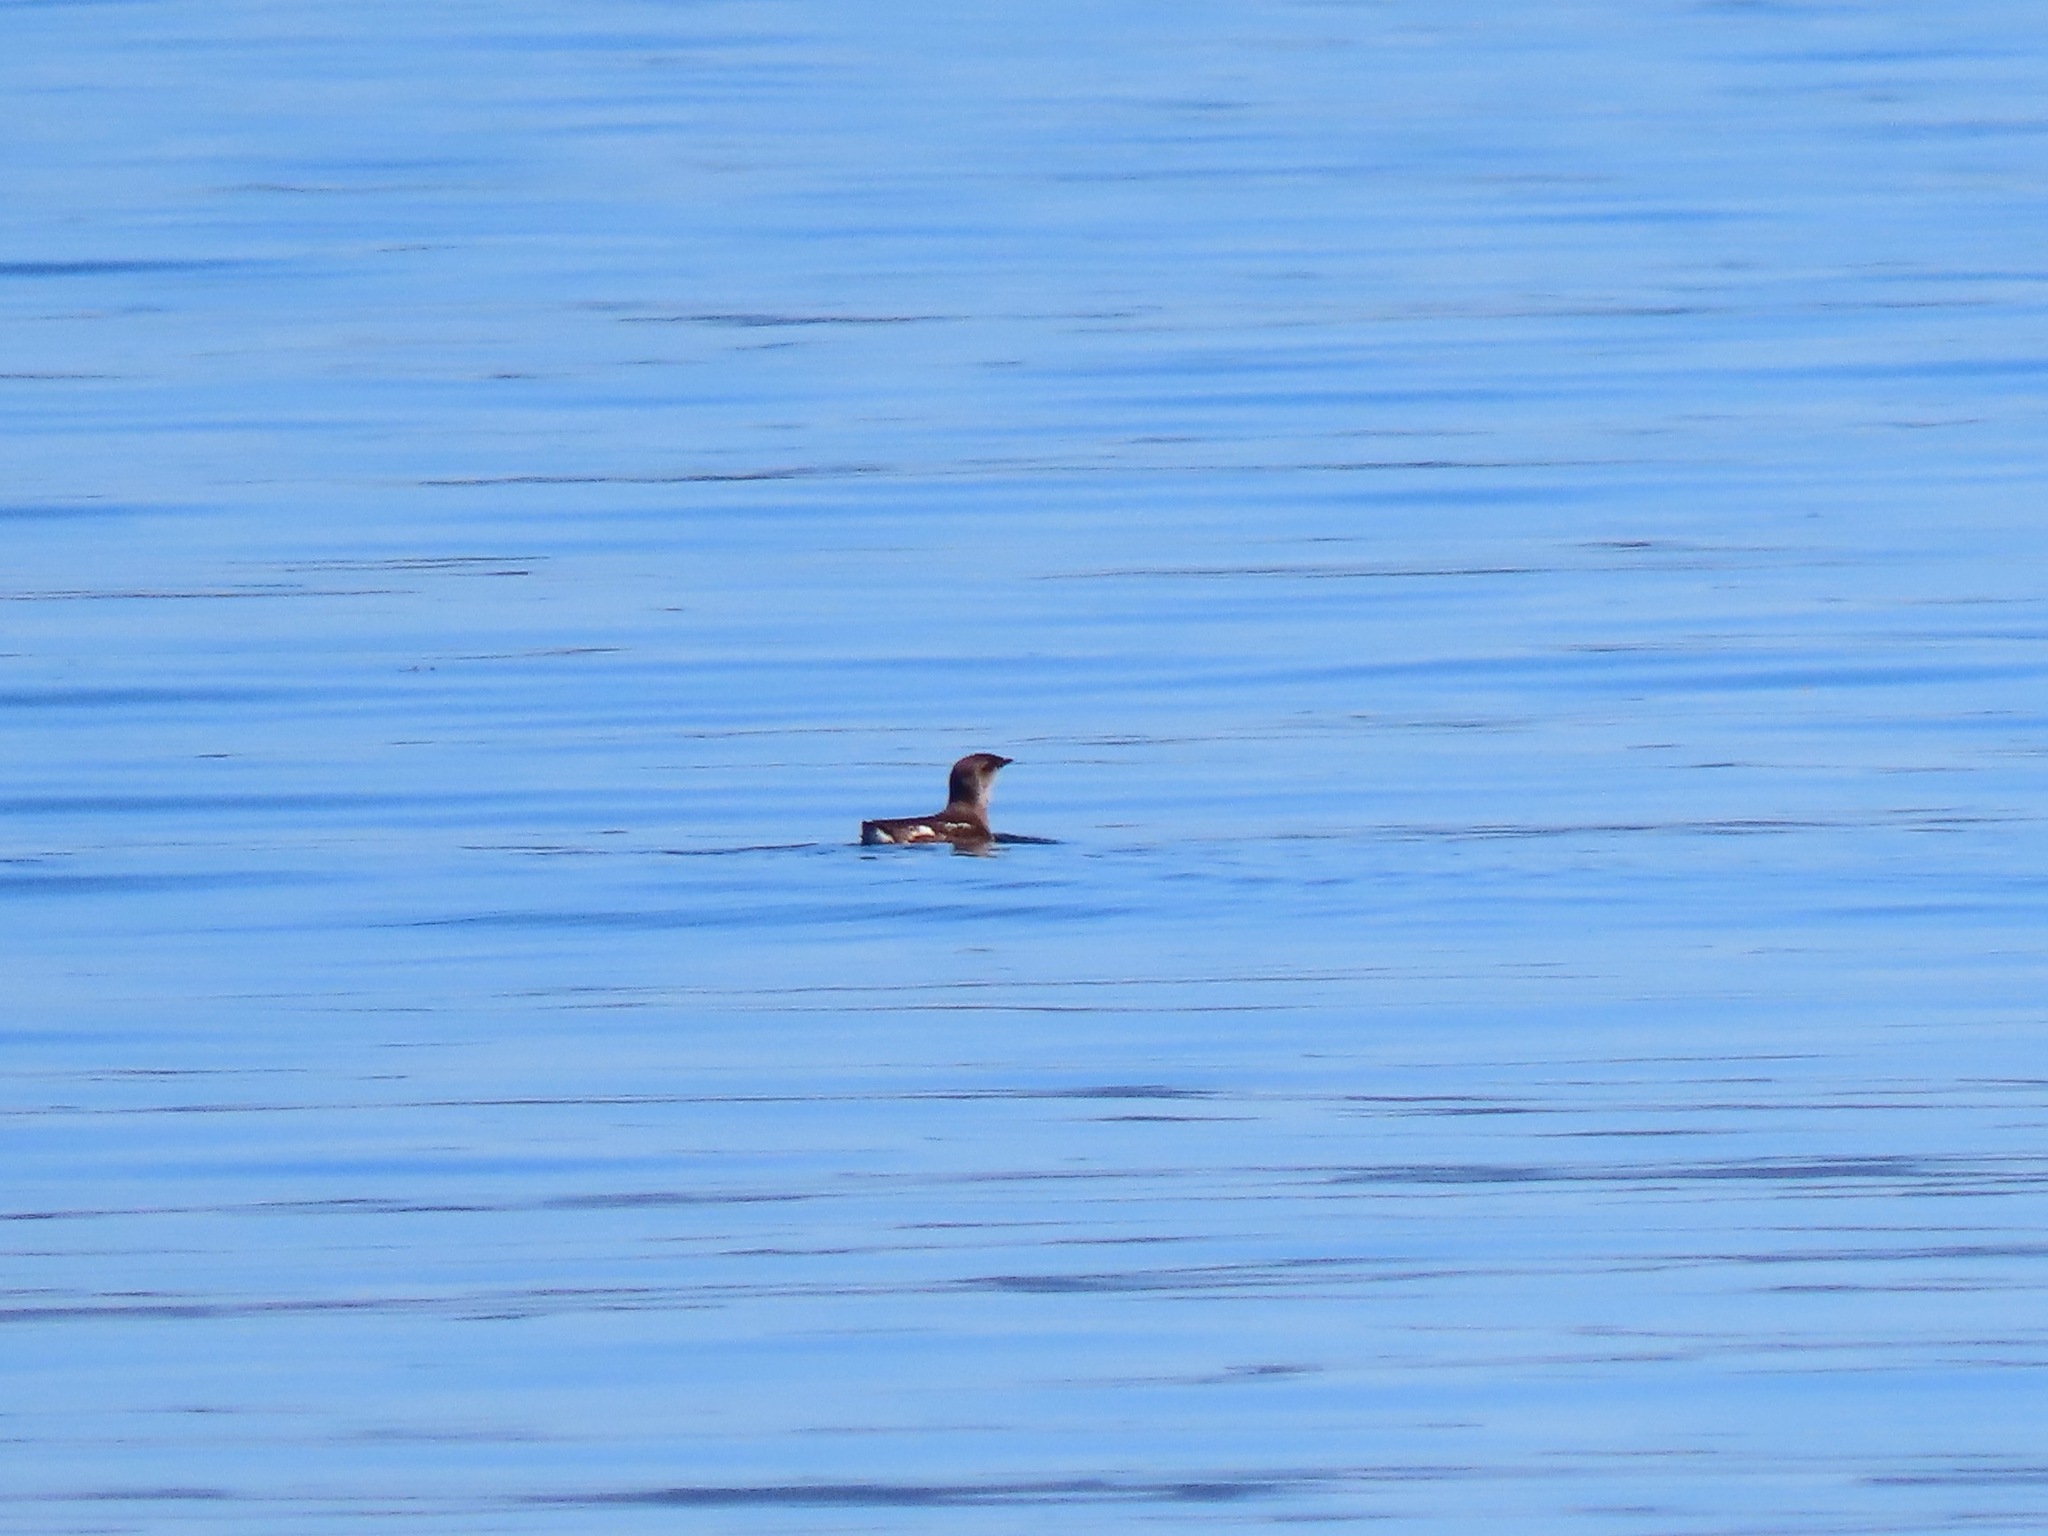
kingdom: Animalia
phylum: Chordata
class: Aves
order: Charadriiformes
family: Alcidae
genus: Brachyramphus
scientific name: Brachyramphus marmoratus
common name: Marbled murrelet
